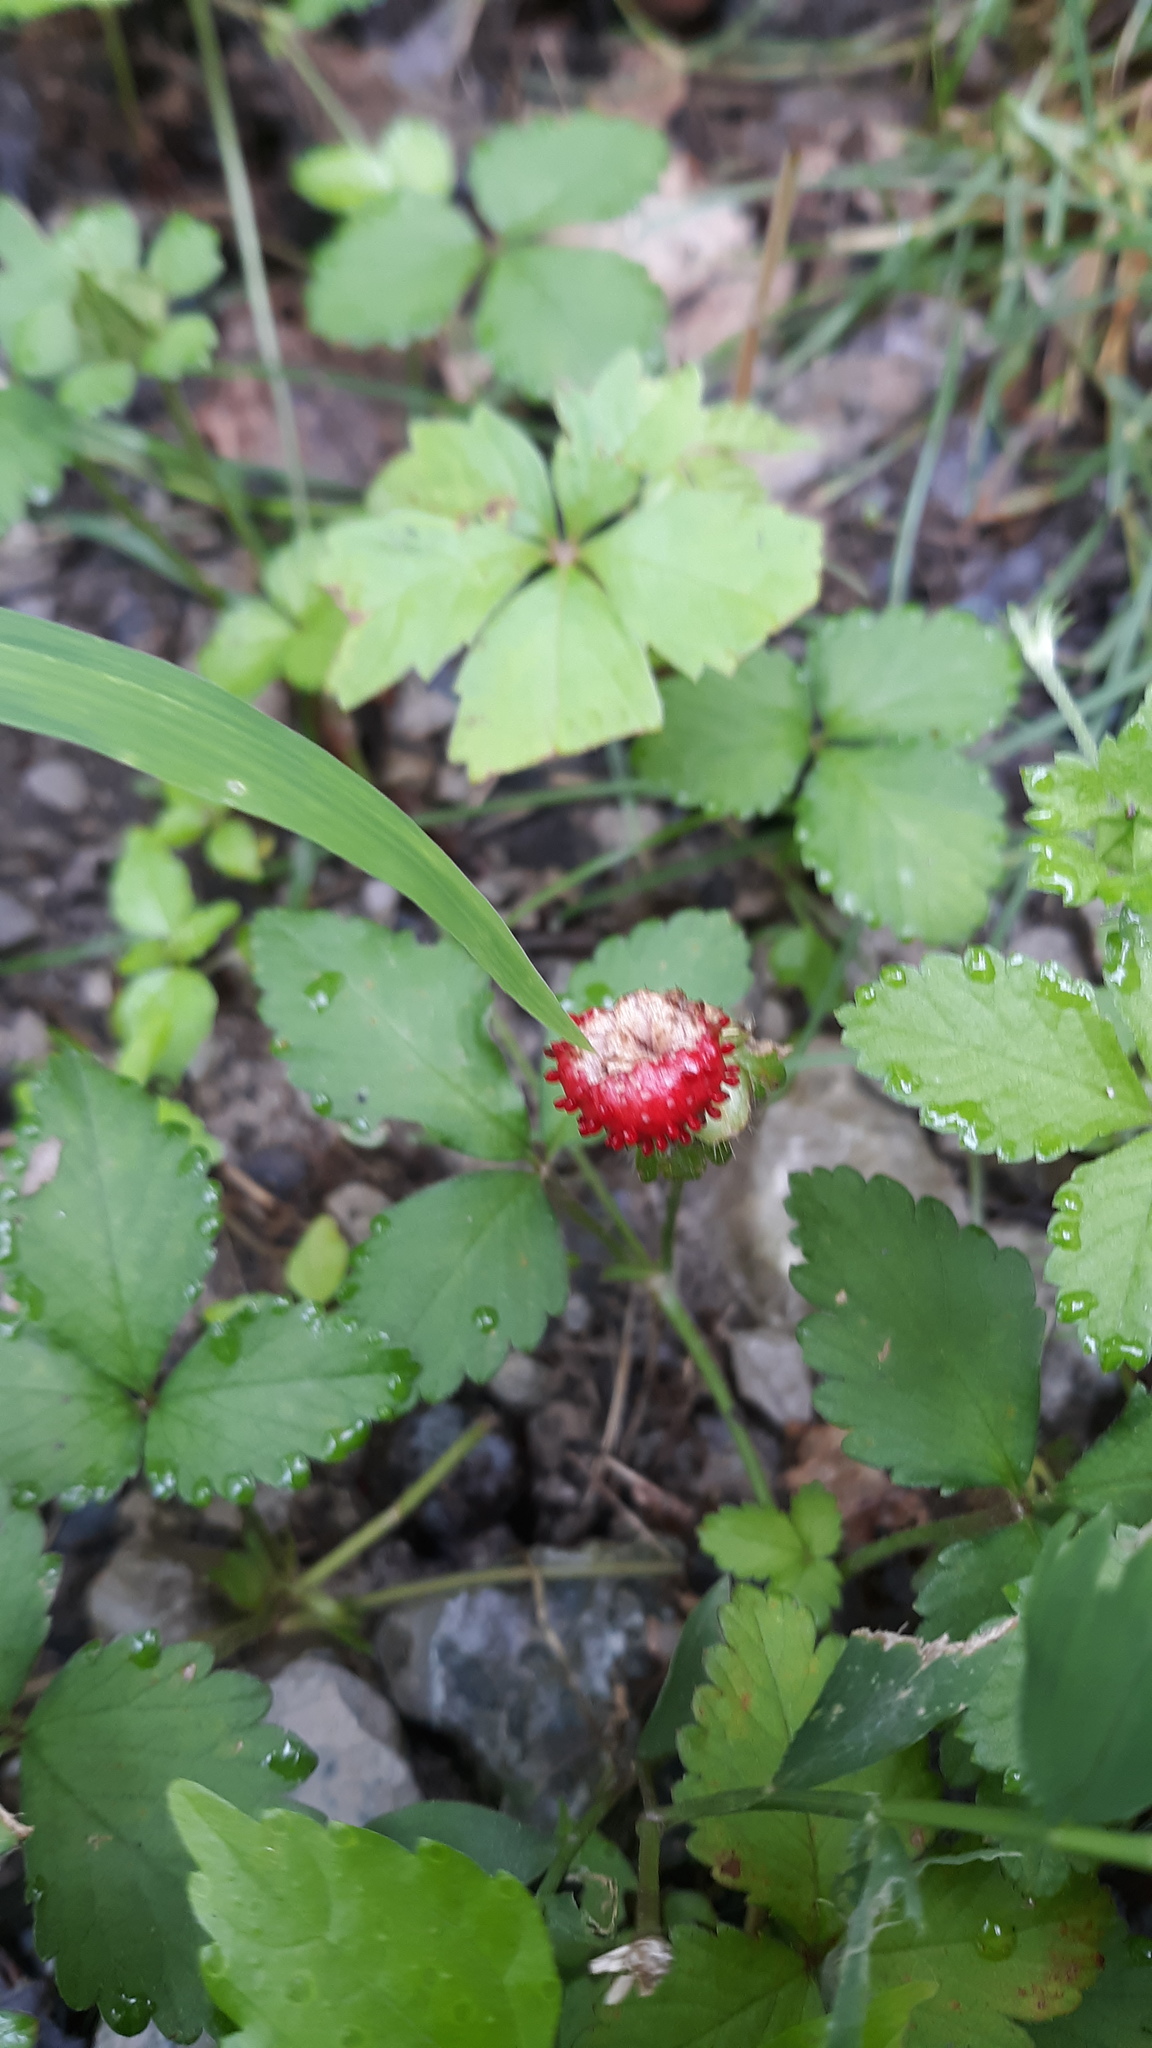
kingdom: Plantae
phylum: Tracheophyta
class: Magnoliopsida
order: Rosales
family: Rosaceae
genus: Potentilla
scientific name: Potentilla indica
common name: Yellow-flowered strawberry
